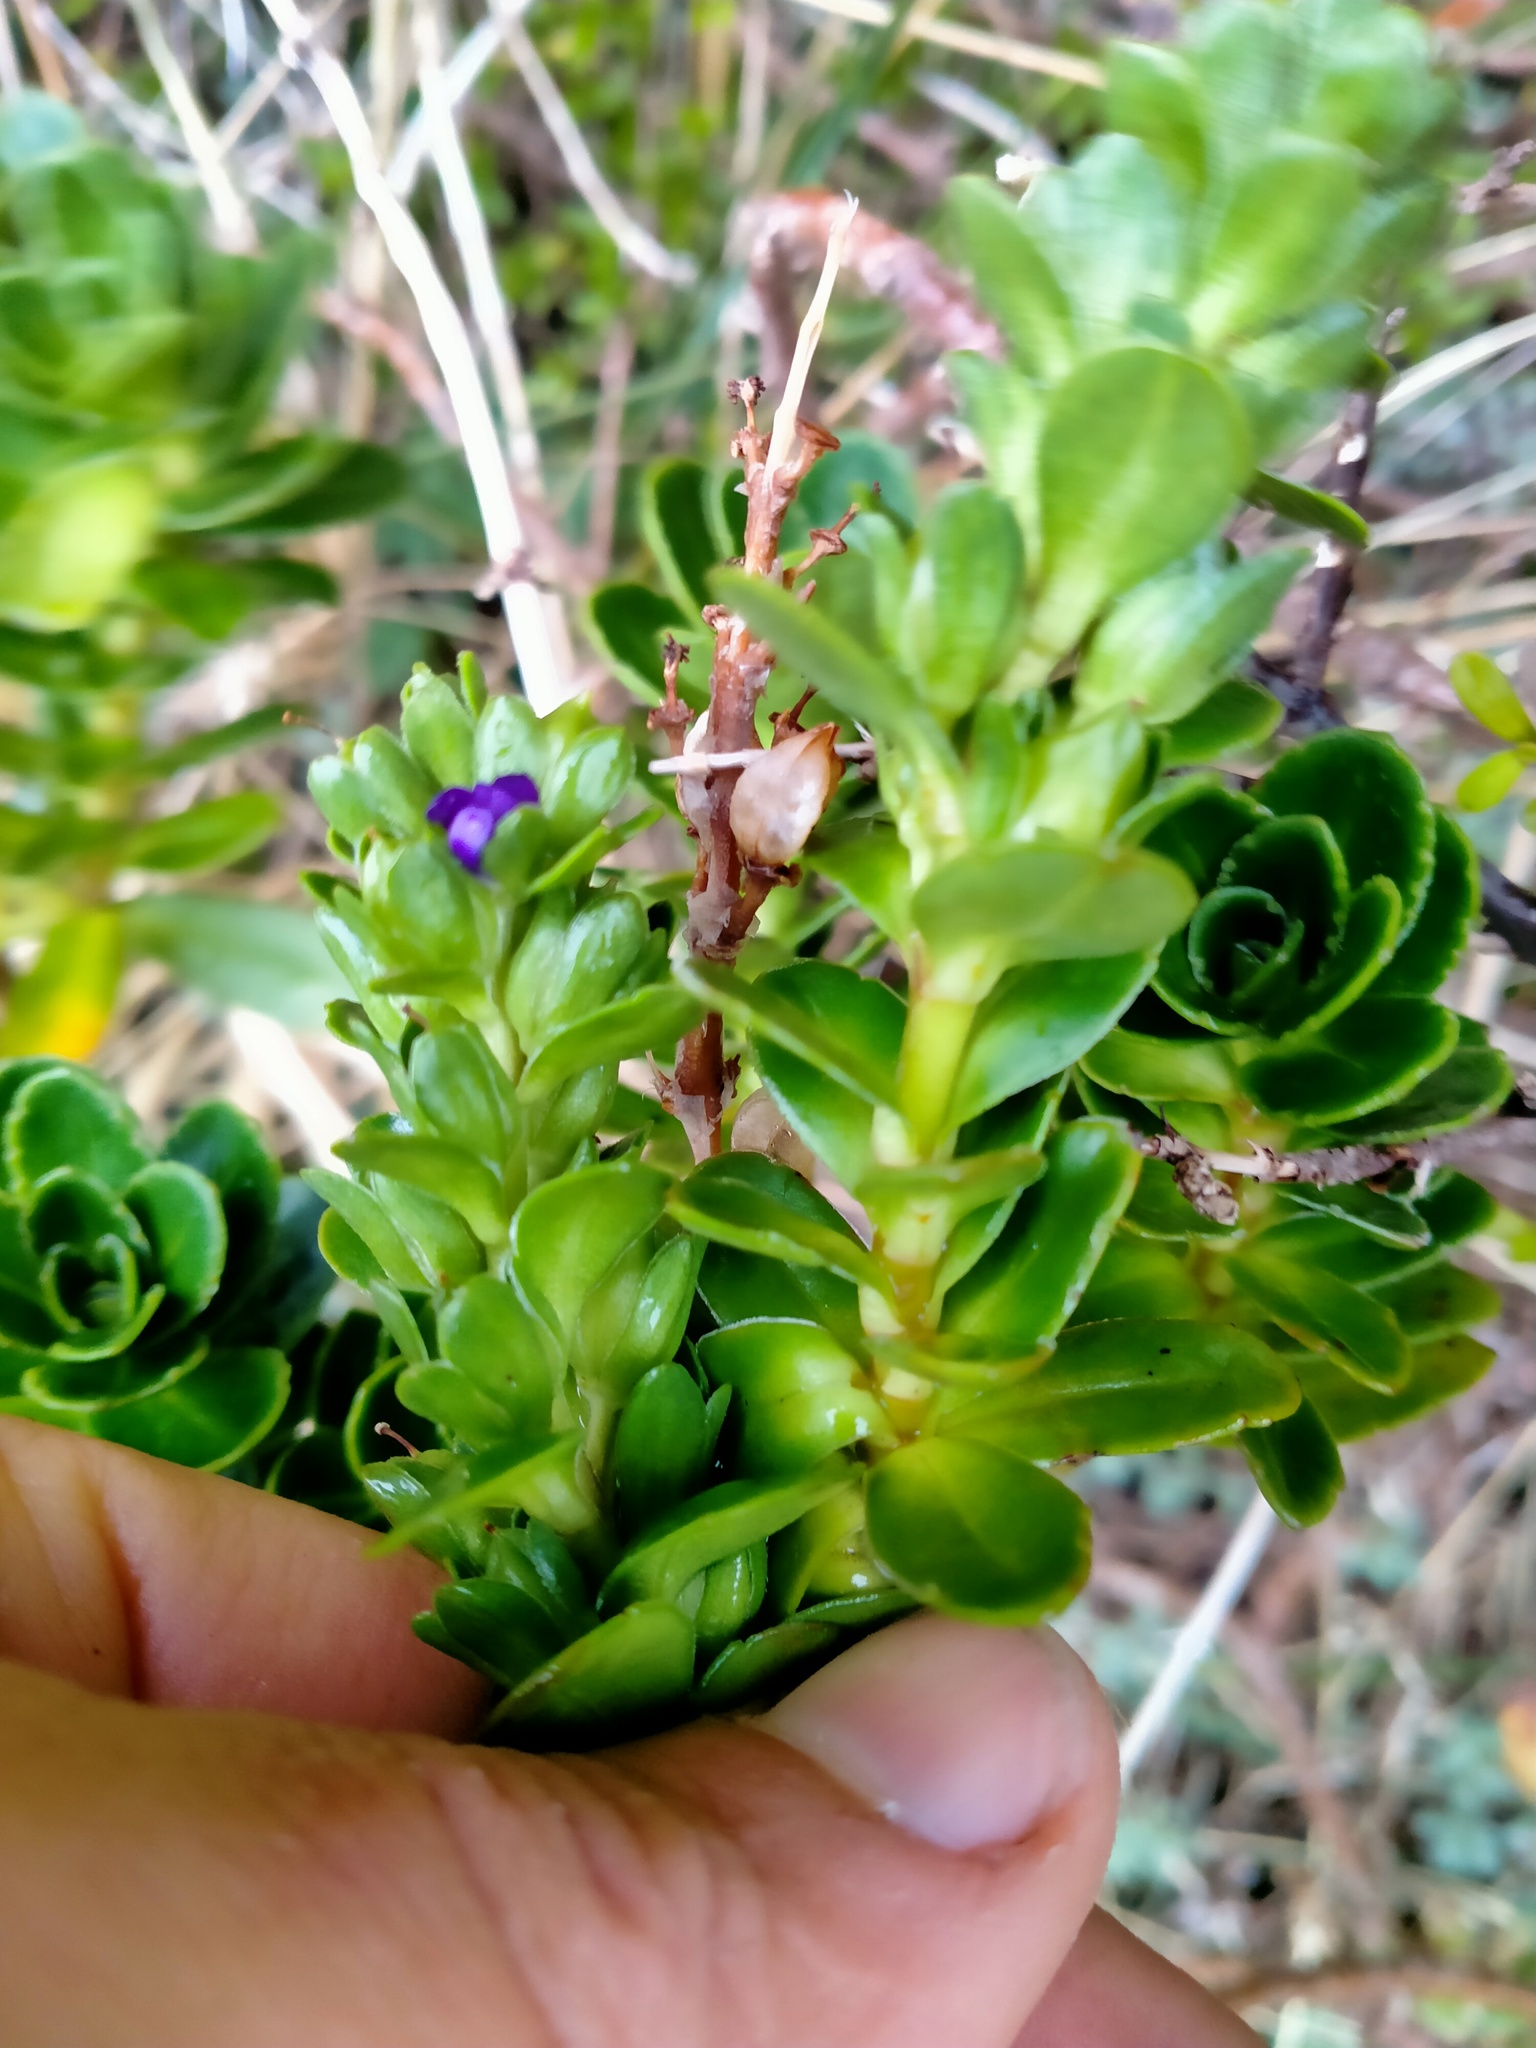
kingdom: Plantae
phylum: Tracheophyta
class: Magnoliopsida
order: Lamiales
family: Plantaginaceae
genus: Veronica
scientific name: Veronica benthamii
